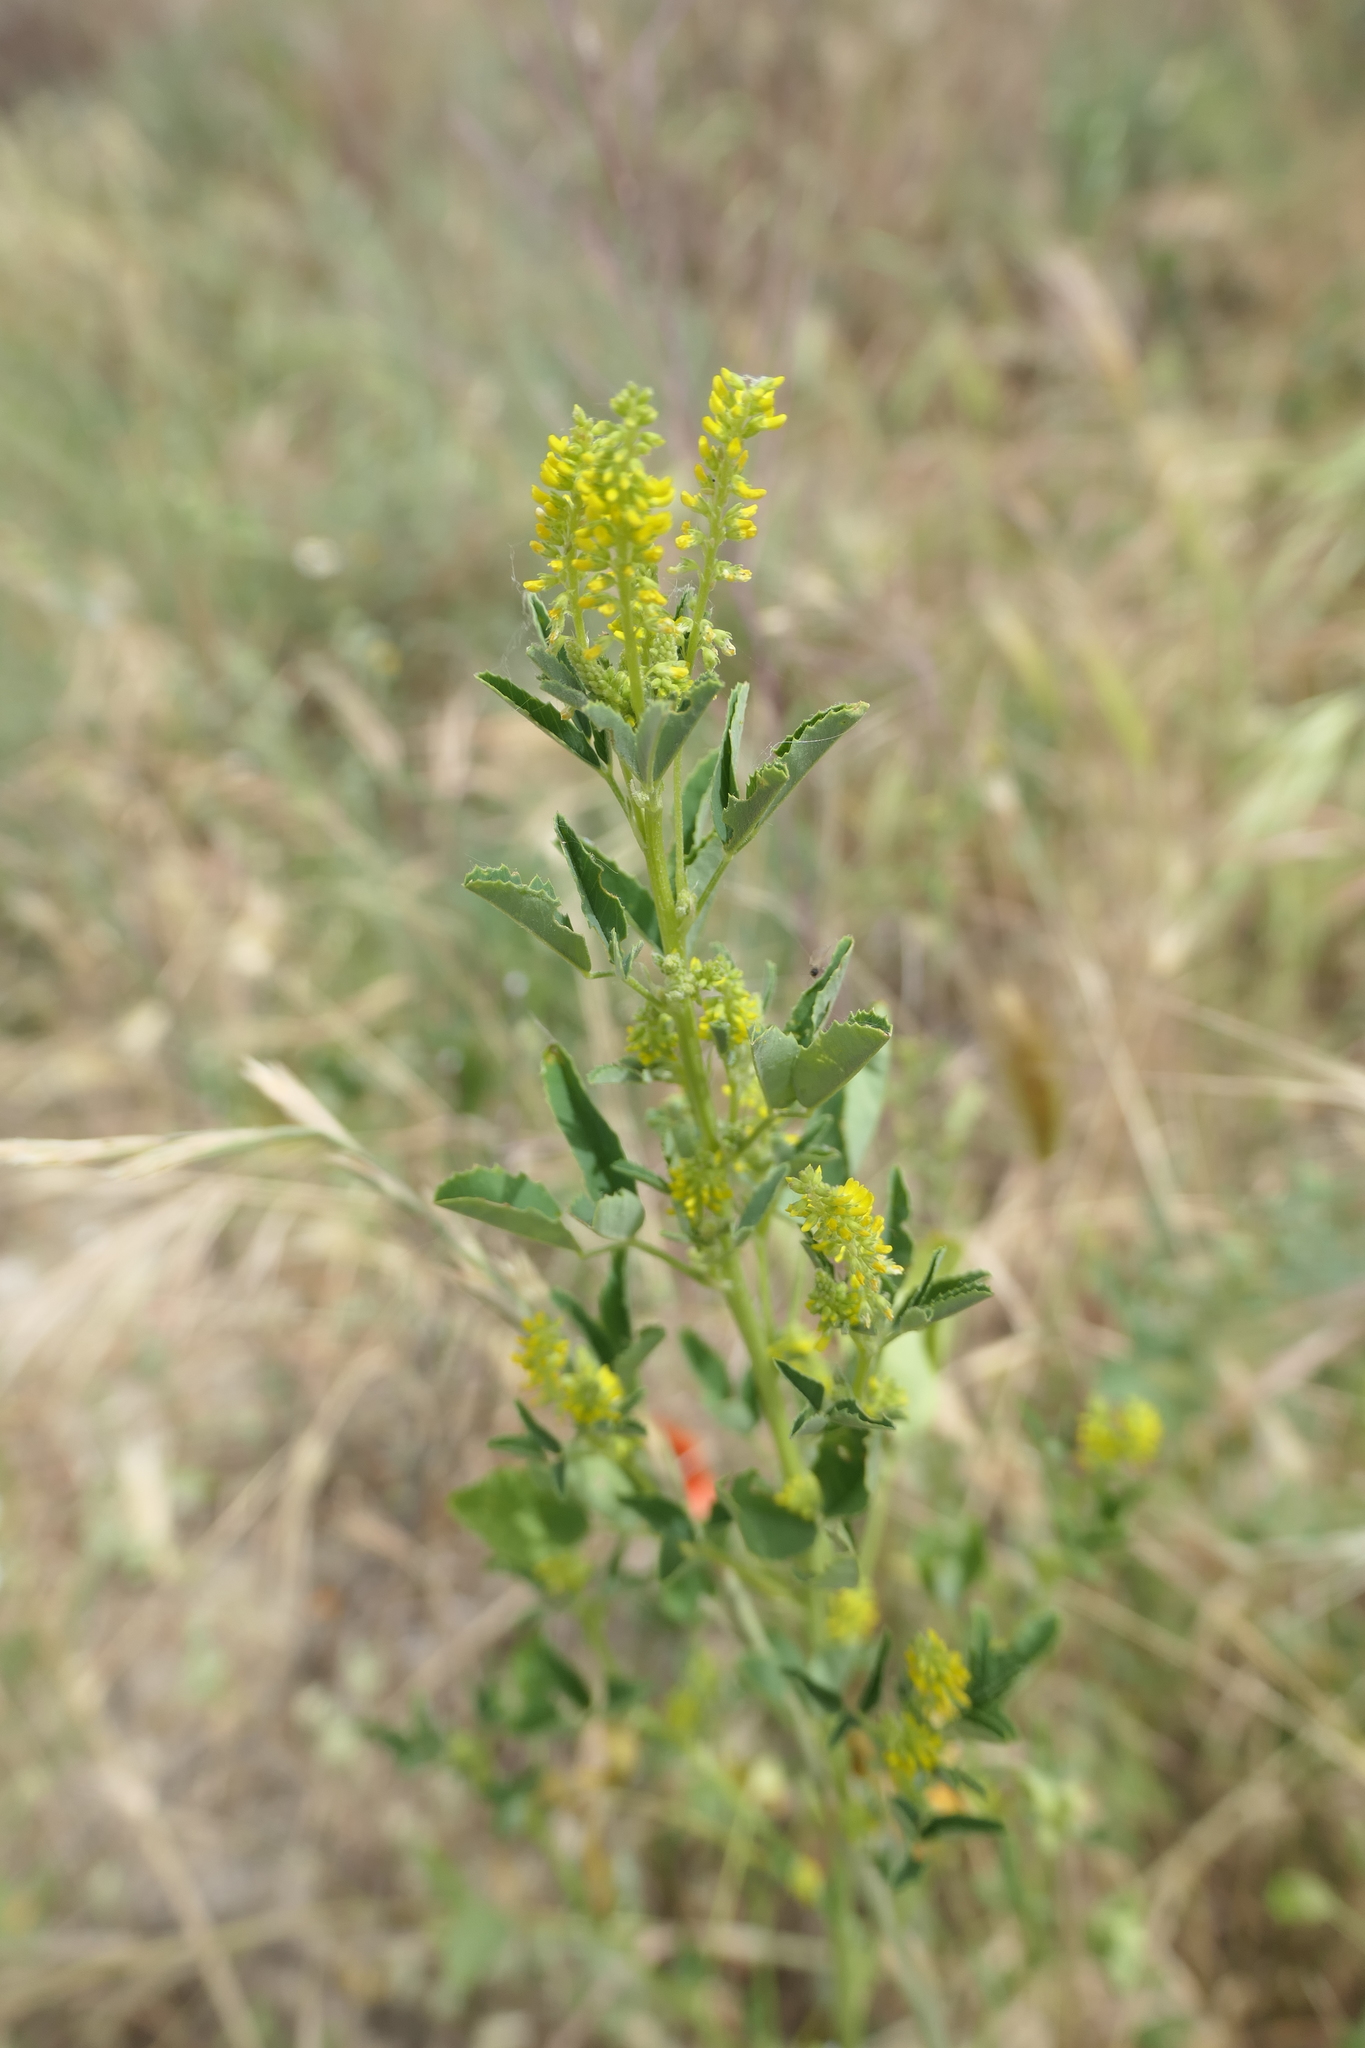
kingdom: Plantae
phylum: Tracheophyta
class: Magnoliopsida
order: Fabales
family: Fabaceae
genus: Melilotus
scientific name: Melilotus indicus
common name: Small melilot
